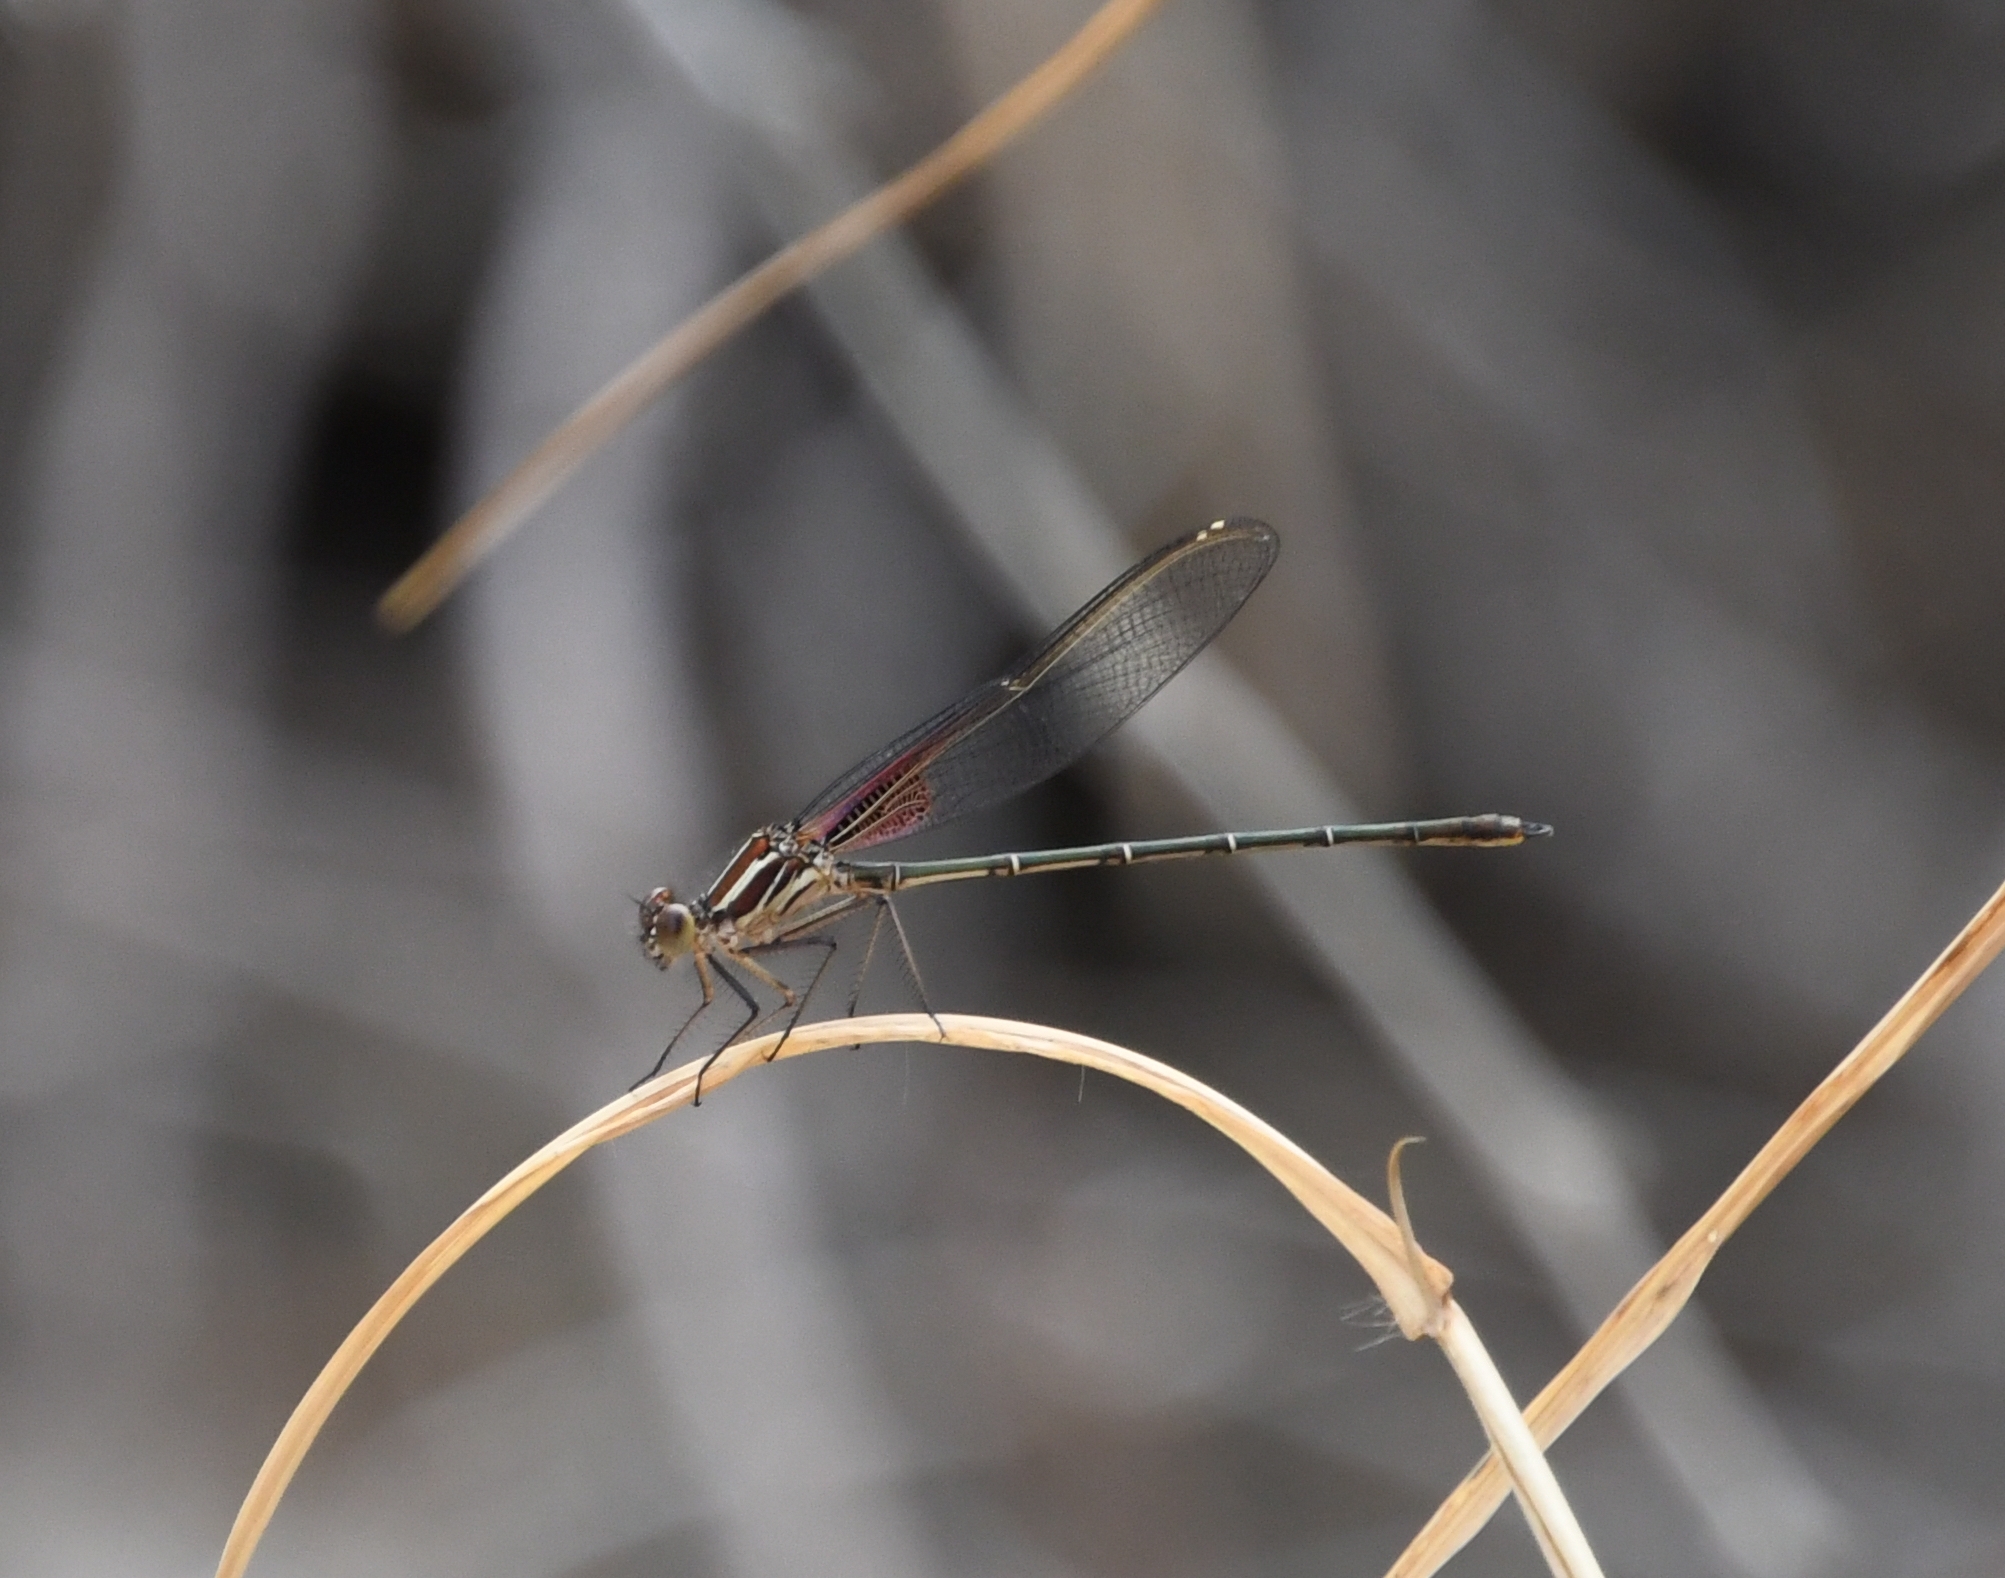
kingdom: Animalia
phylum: Arthropoda
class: Insecta
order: Odonata
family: Calopterygidae
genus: Hetaerina
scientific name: Hetaerina americana
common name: American rubyspot
